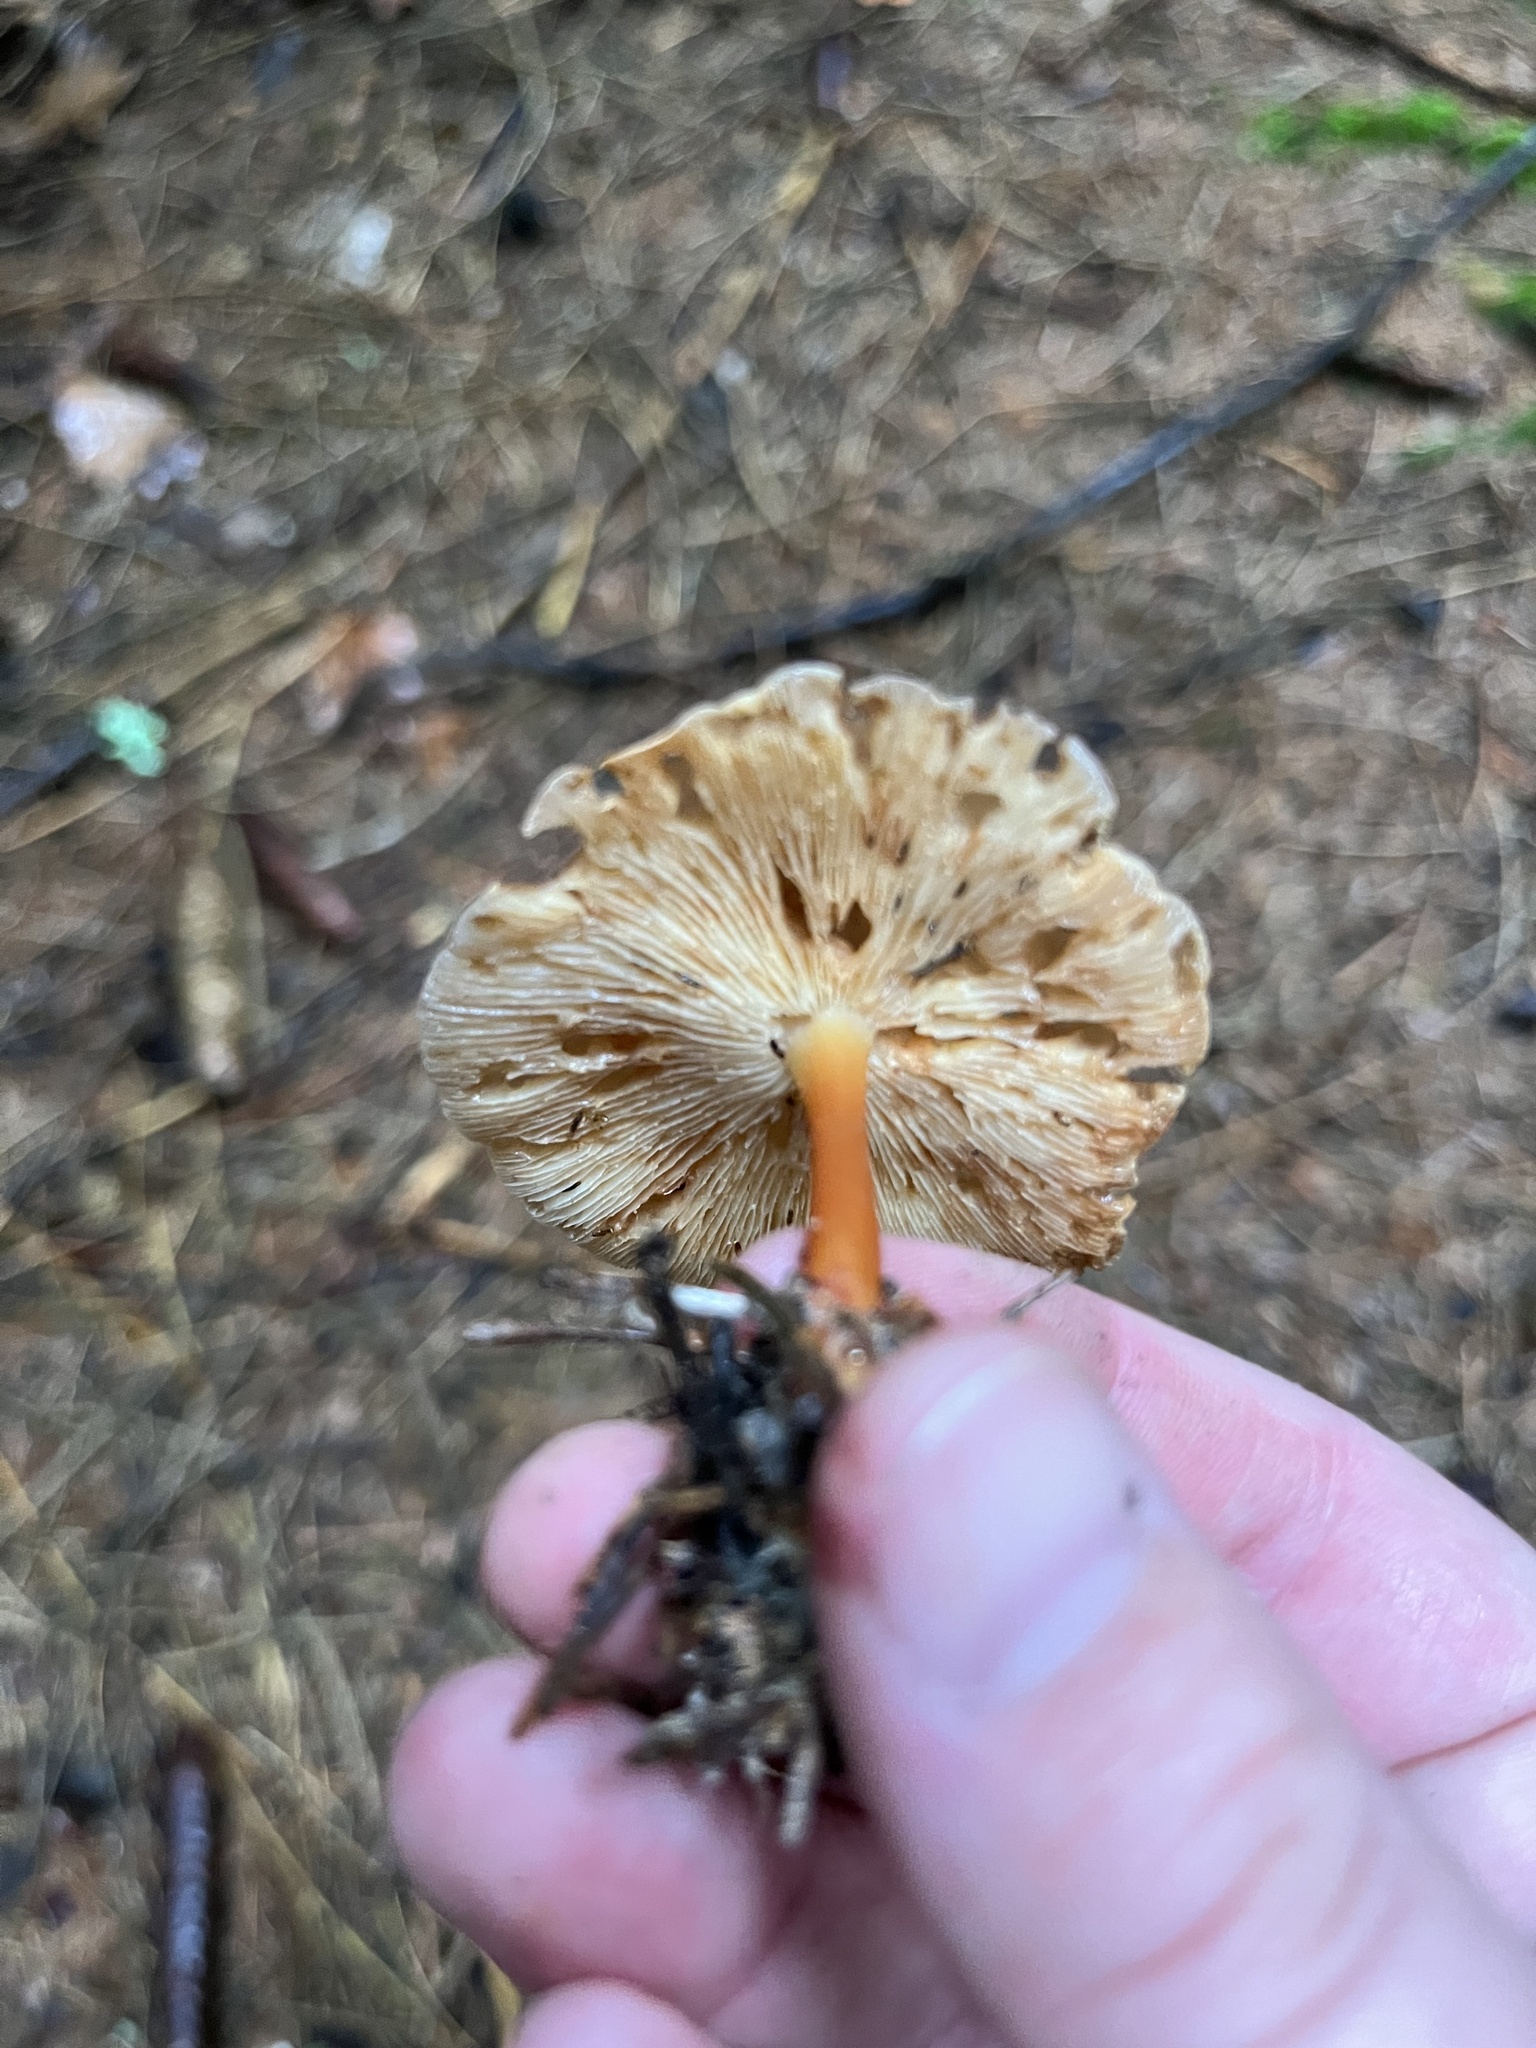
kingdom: Fungi
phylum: Basidiomycota
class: Agaricomycetes
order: Agaricales
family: Omphalotaceae
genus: Gymnopus
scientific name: Gymnopus dryophilus
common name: Penny top
